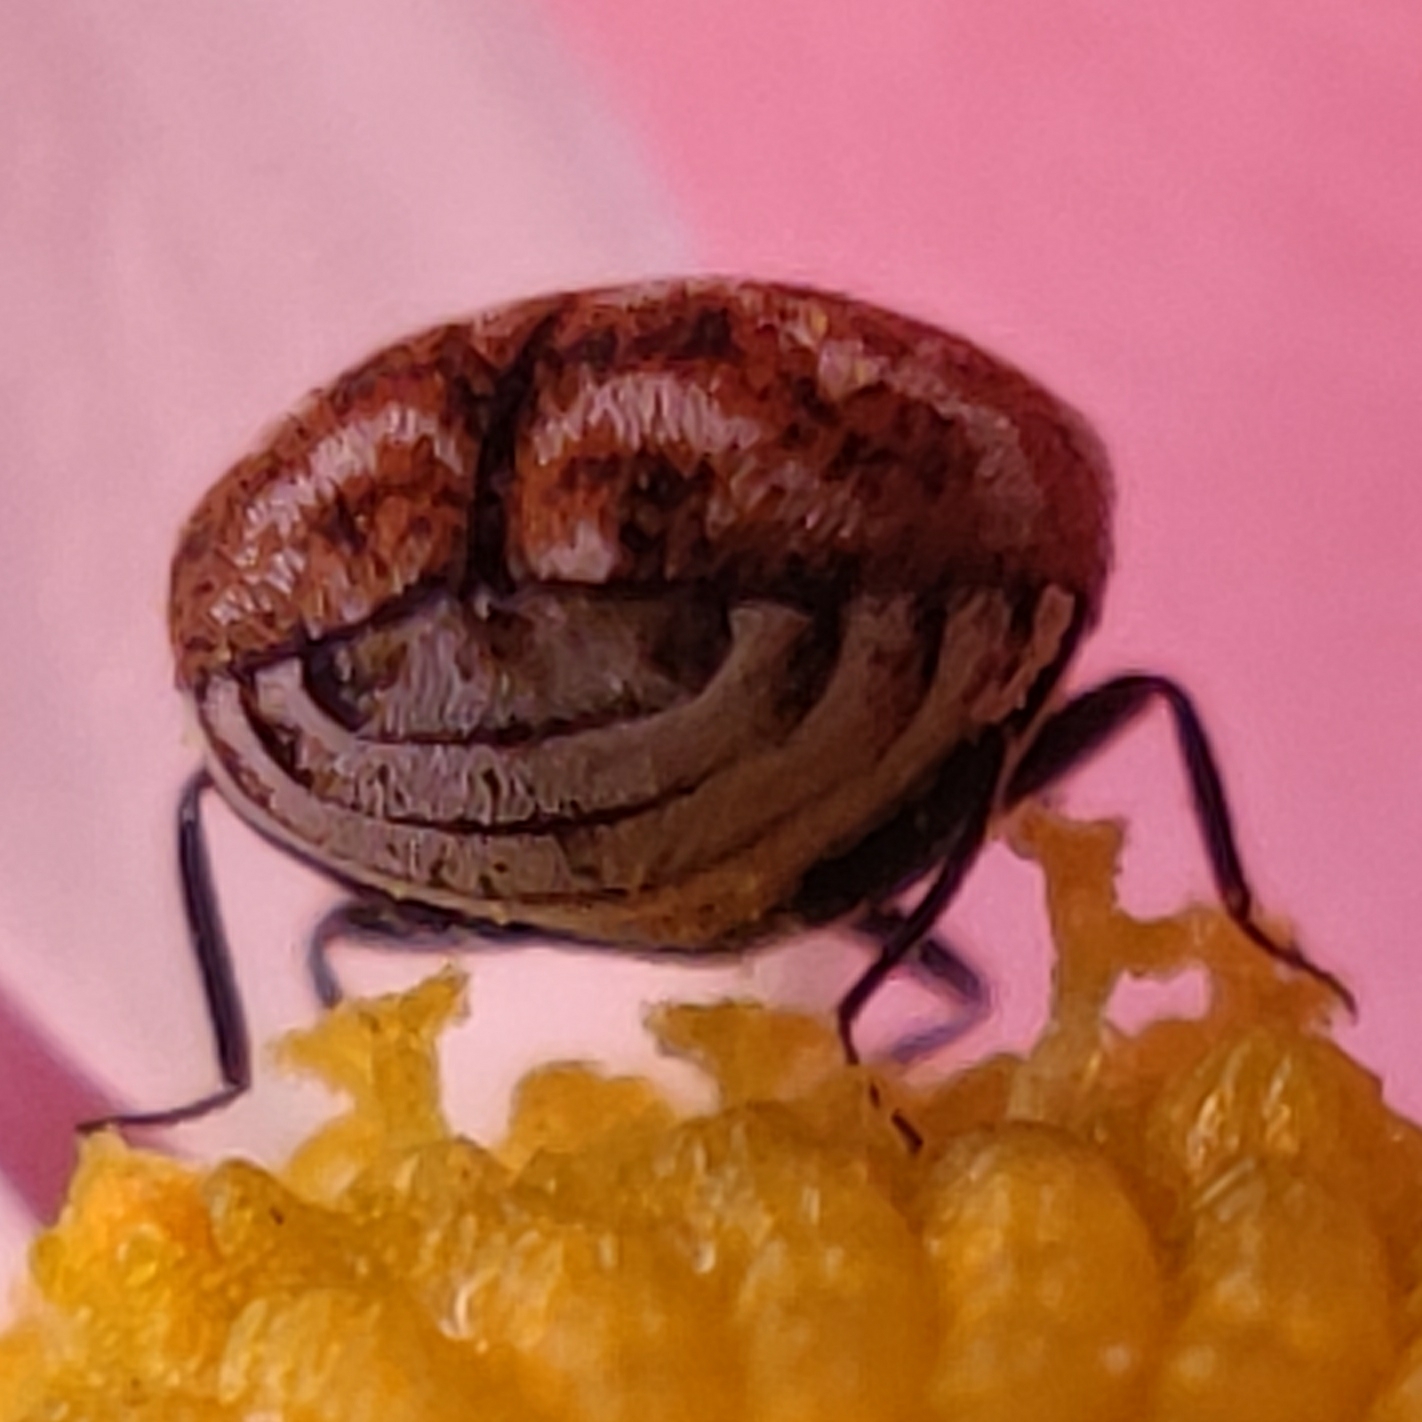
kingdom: Animalia
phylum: Arthropoda
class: Insecta
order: Coleoptera
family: Dermestidae
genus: Anthrenus
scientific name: Anthrenus verbasci
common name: Varied carpet beetle
